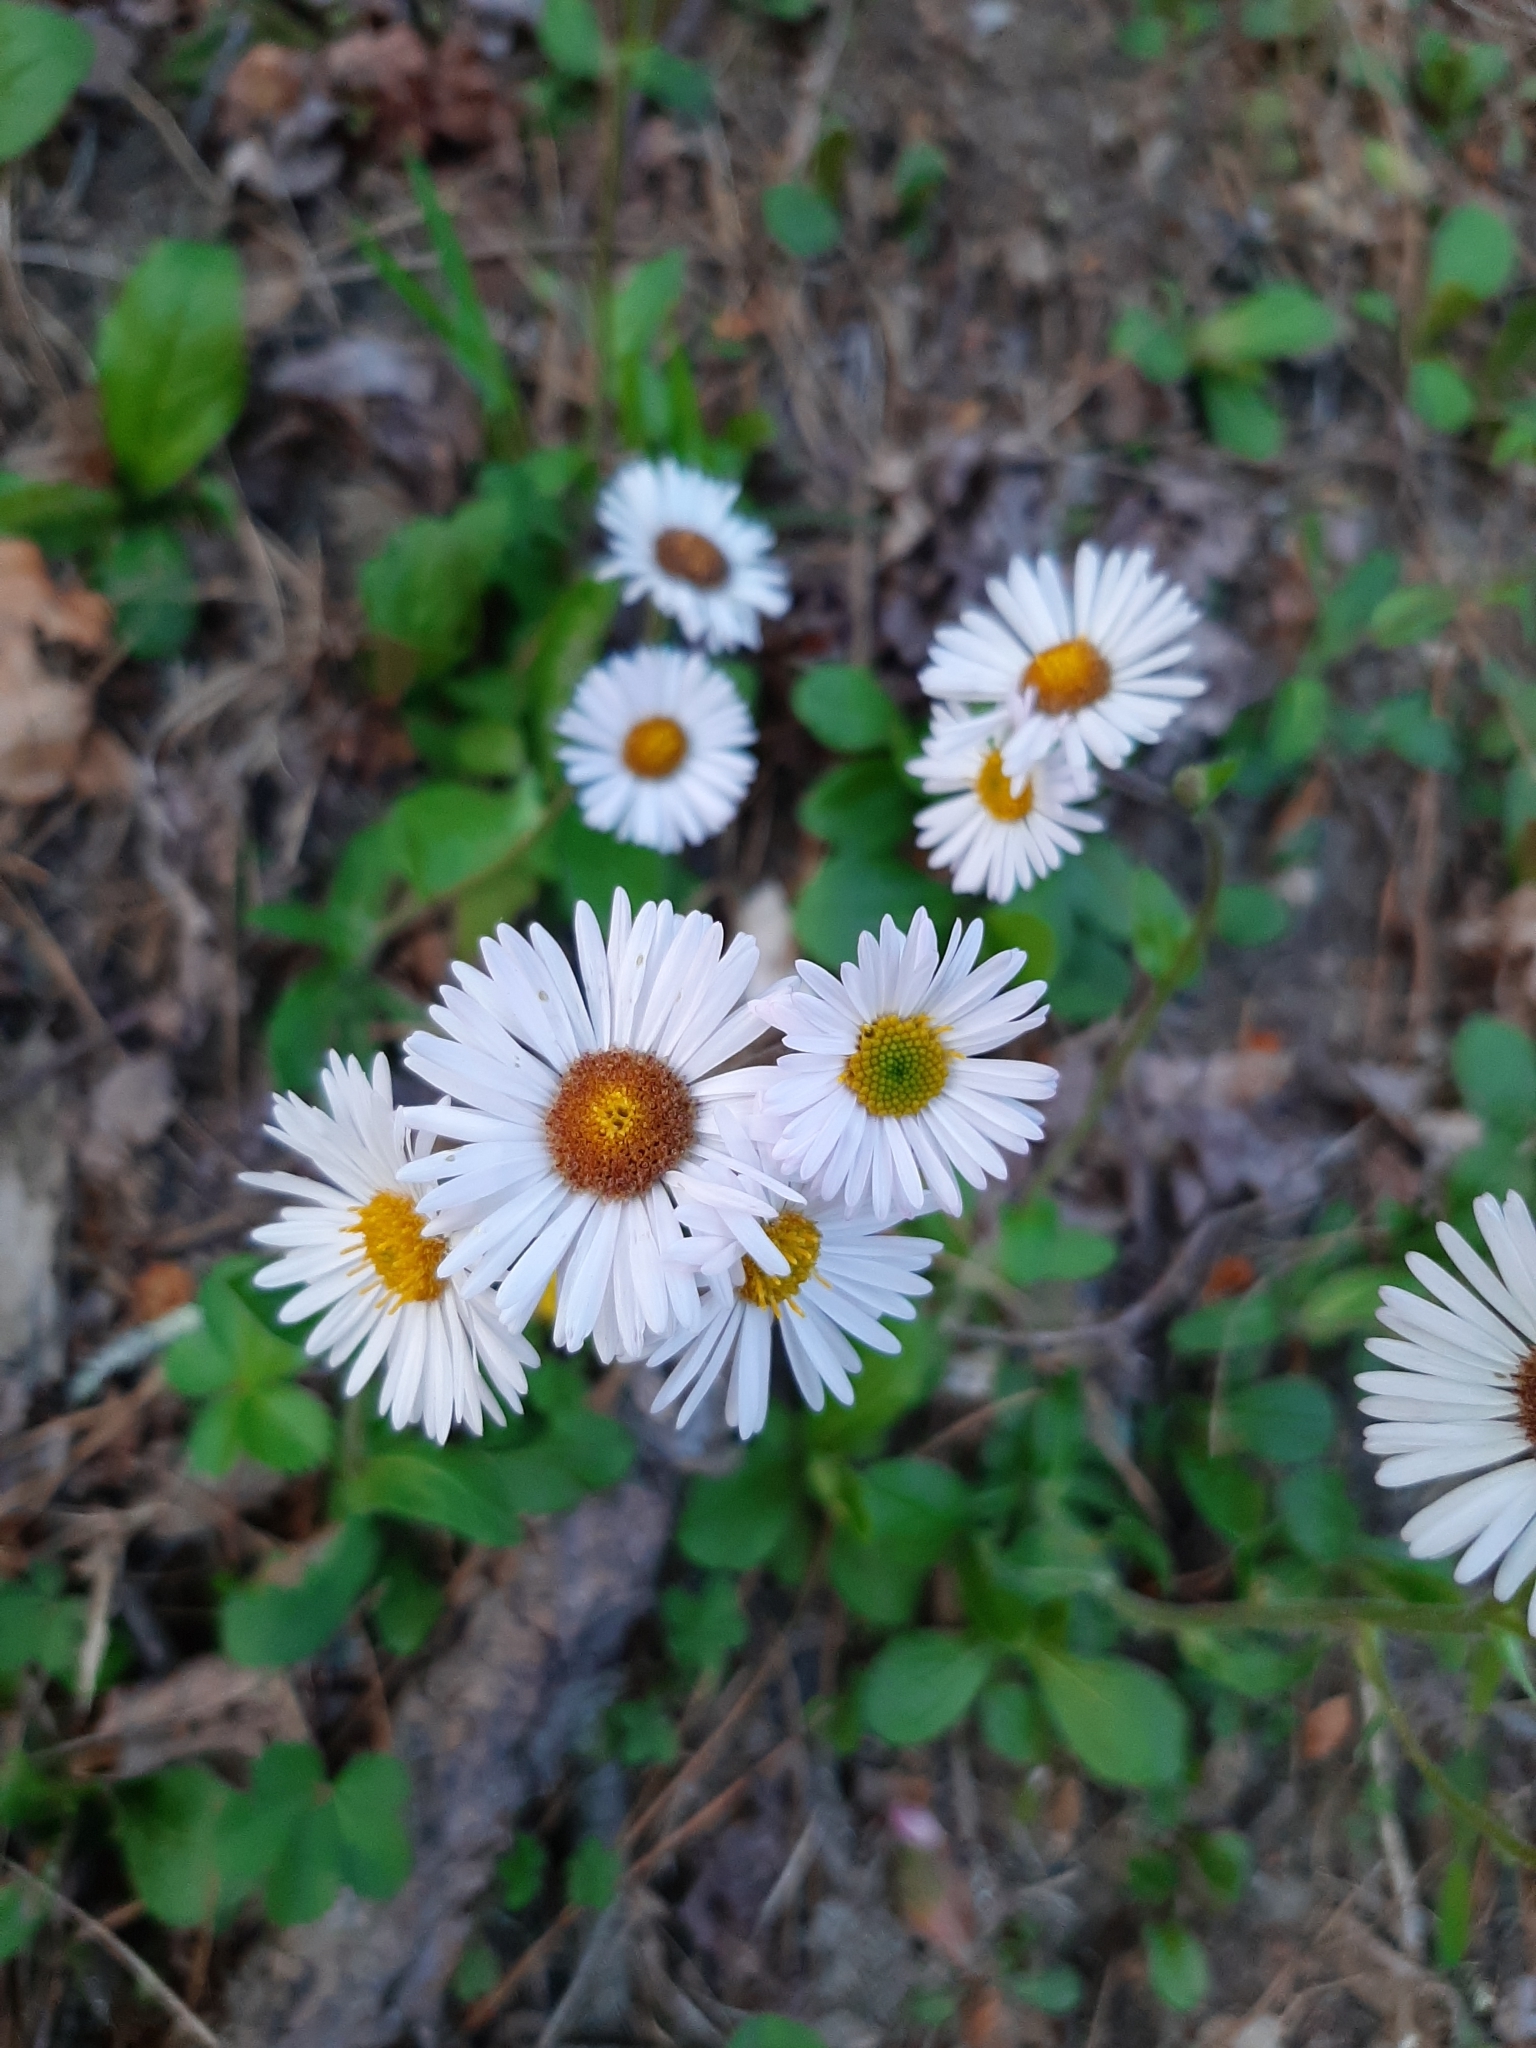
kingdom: Plantae
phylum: Tracheophyta
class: Magnoliopsida
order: Asterales
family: Asteraceae
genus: Erigeron
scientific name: Erigeron pulchellus
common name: Hairy fleabane
